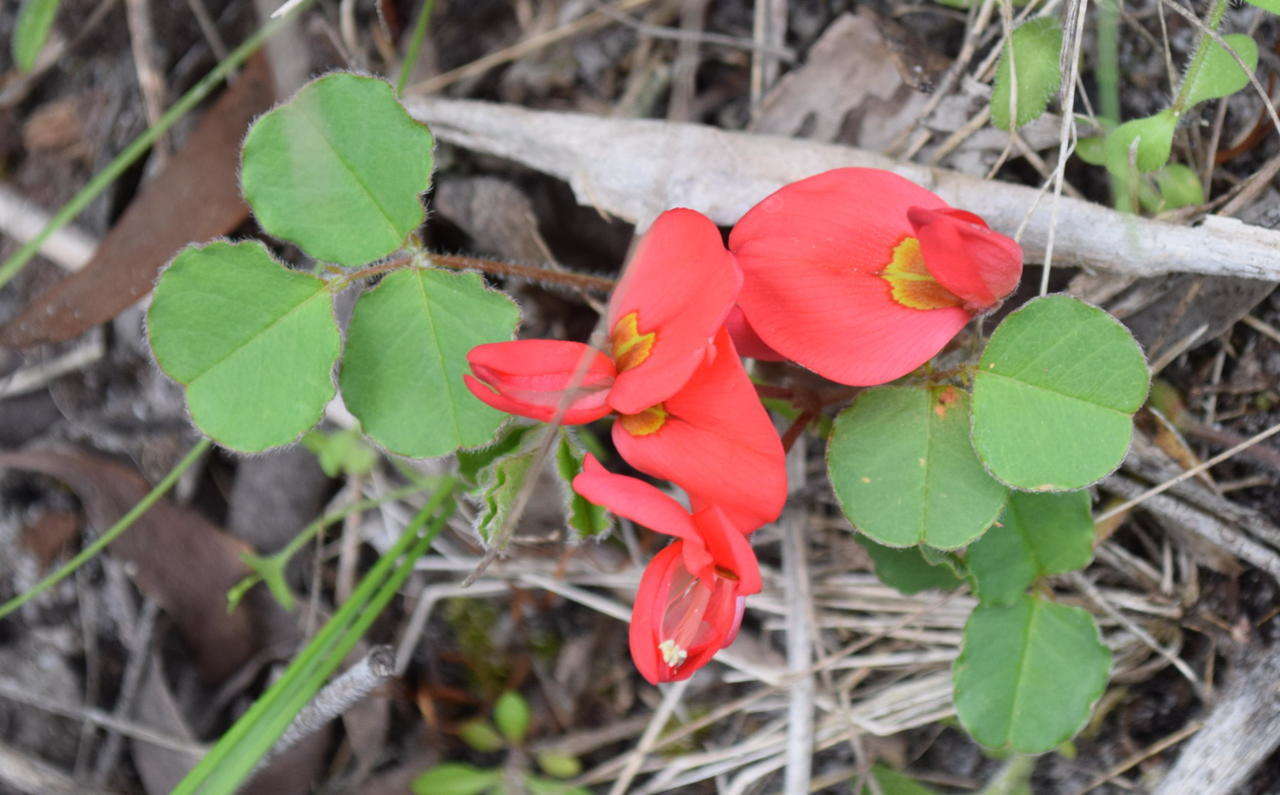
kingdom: Plantae
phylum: Tracheophyta
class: Magnoliopsida
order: Fabales
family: Fabaceae
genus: Kennedia
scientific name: Kennedia prostrata
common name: Running-postman
